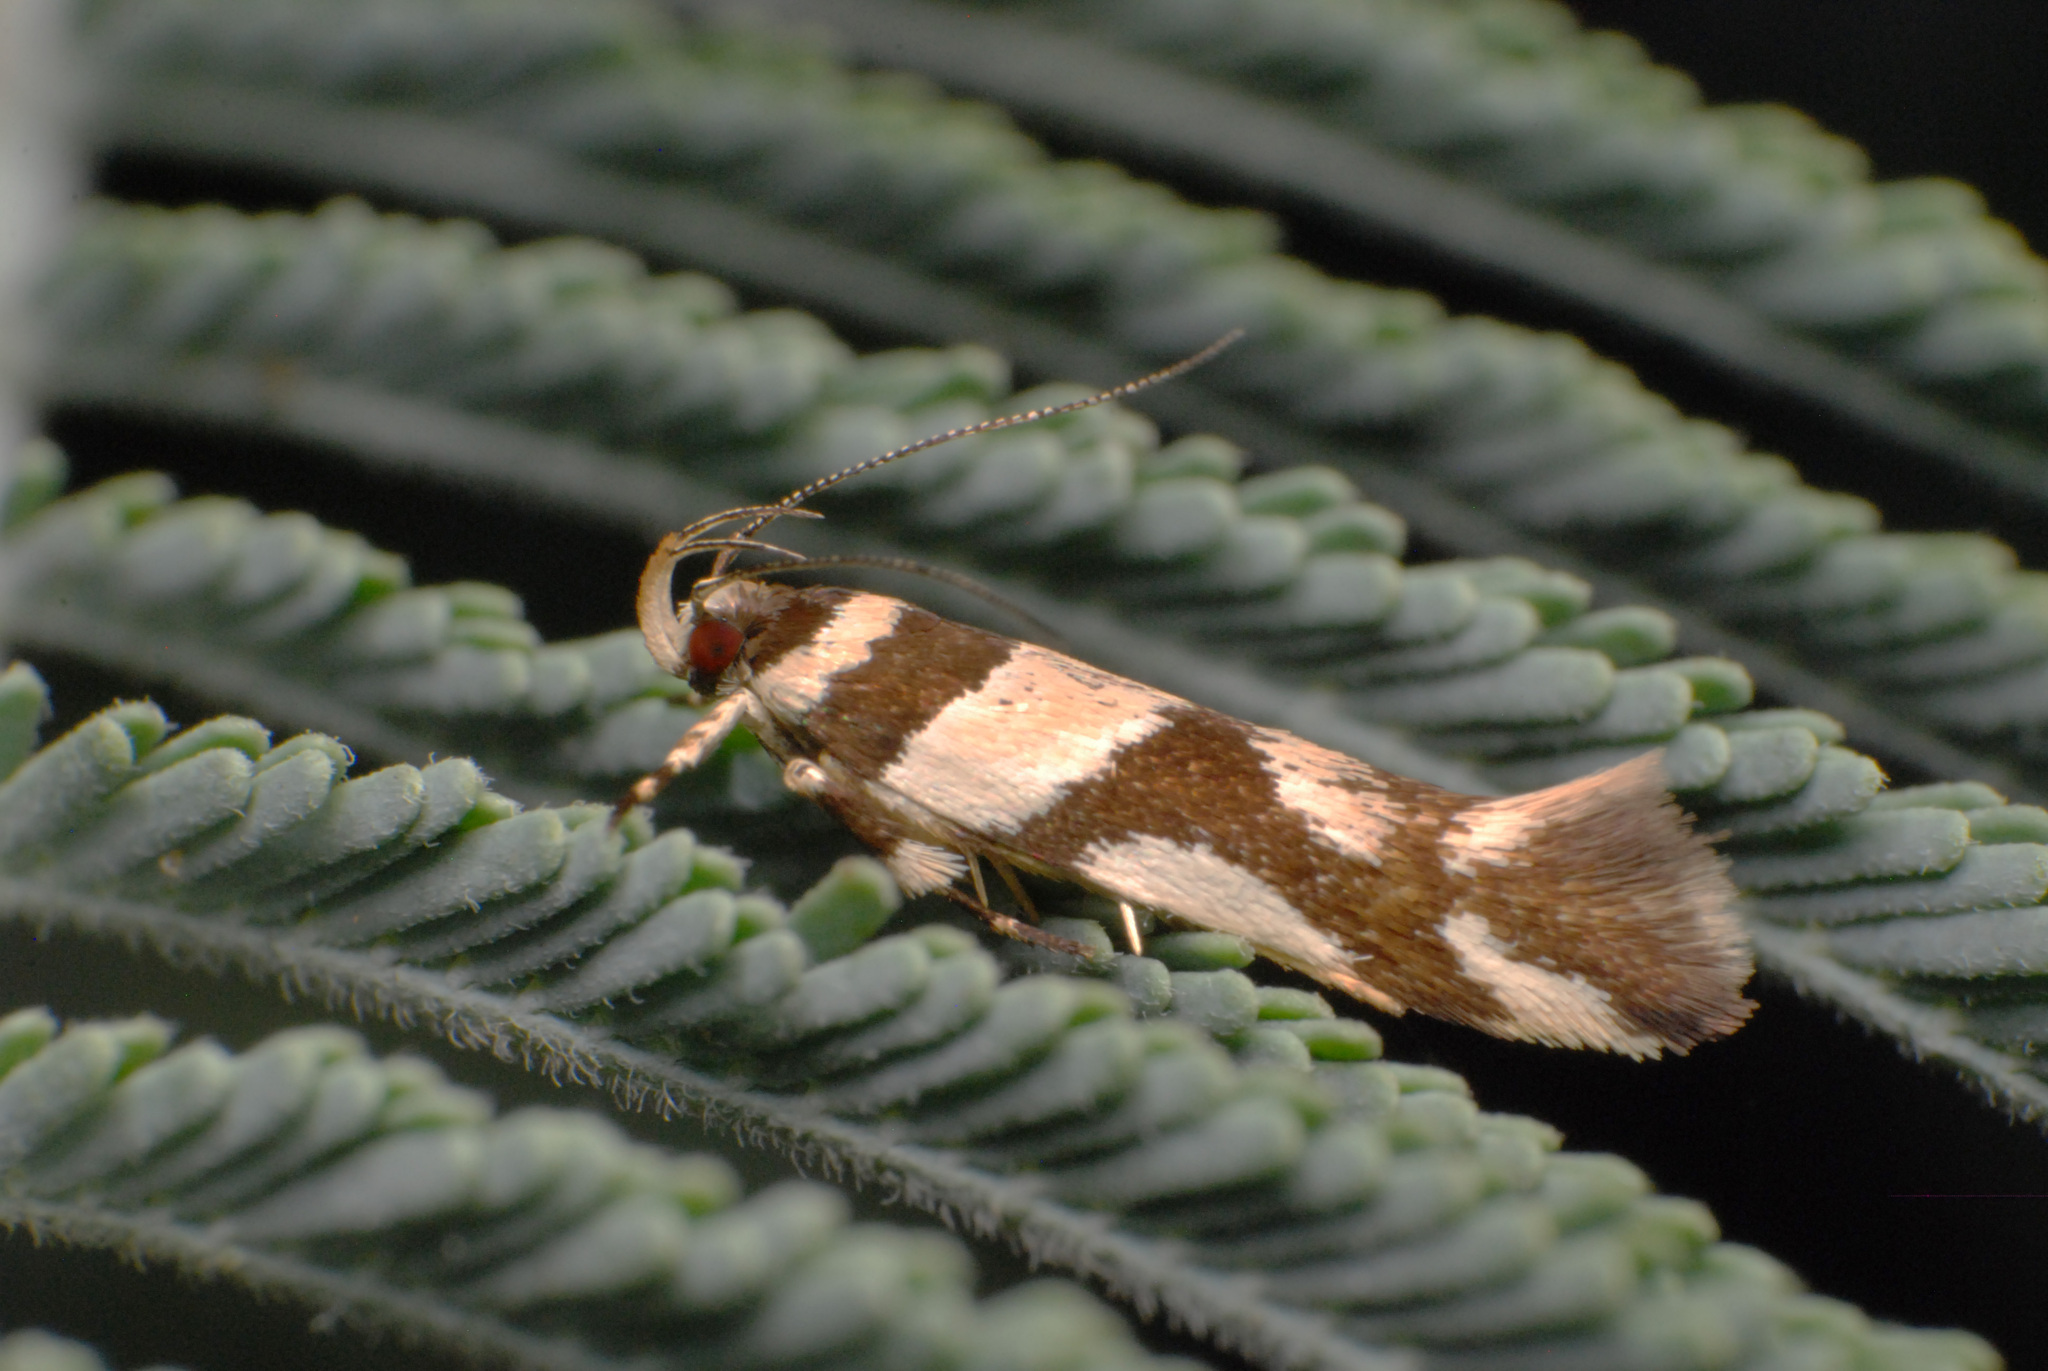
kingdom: Animalia
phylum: Arthropoda
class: Insecta
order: Lepidoptera
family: Cosmopterigidae
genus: Macrobathra
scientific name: Macrobathra desmotoma
